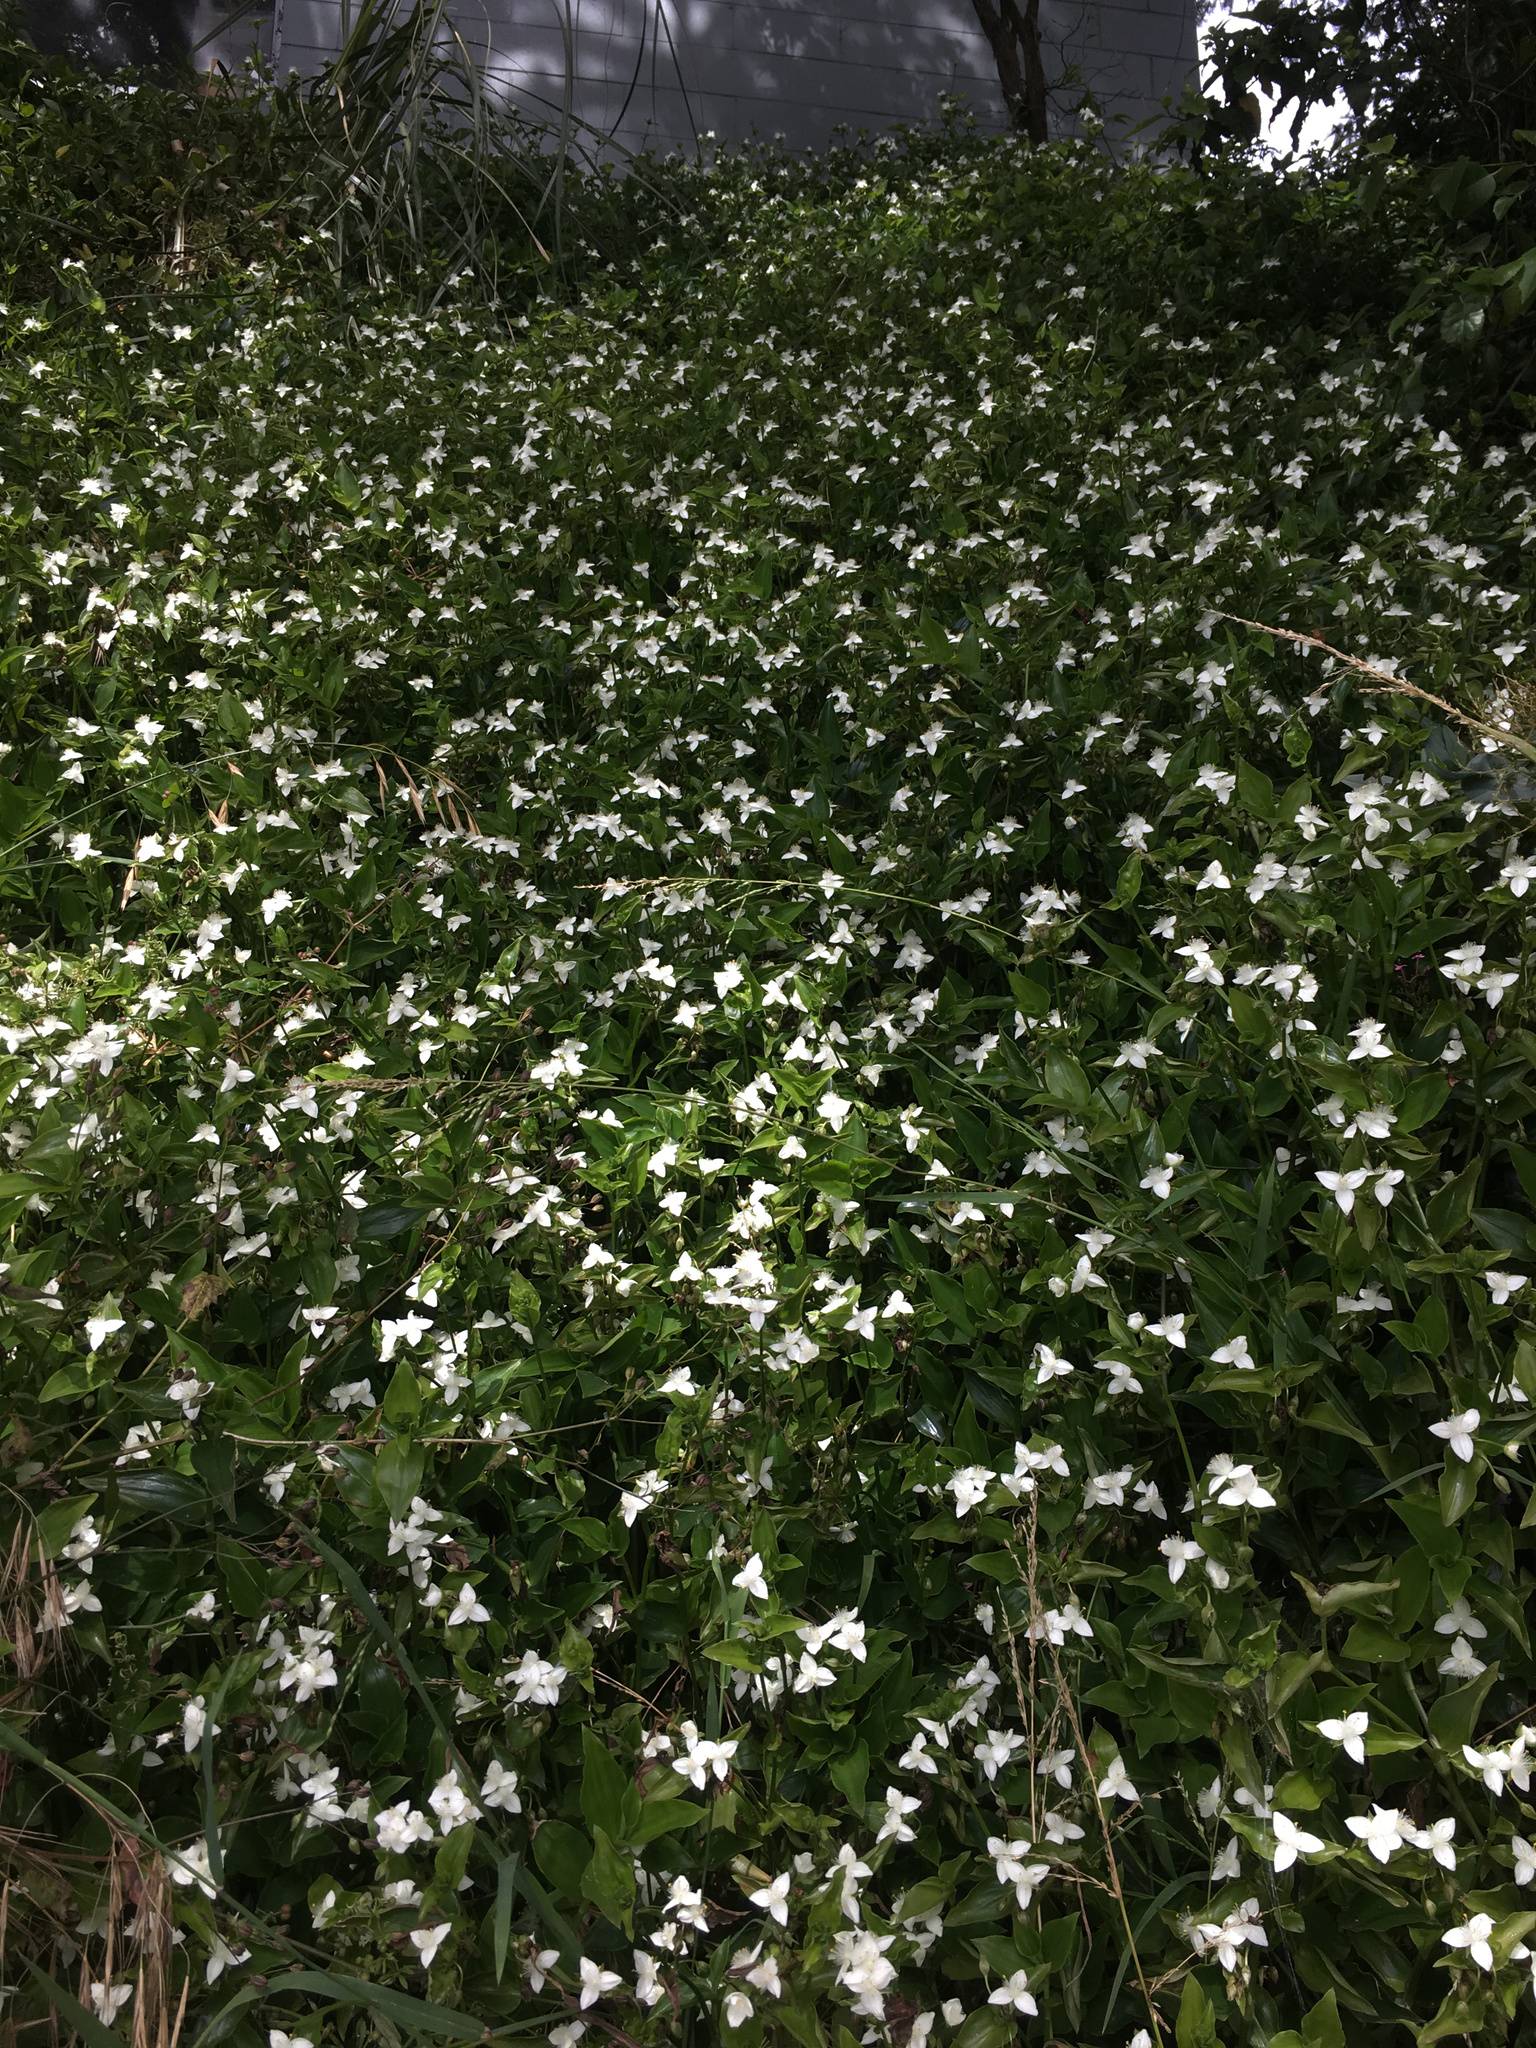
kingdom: Plantae
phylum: Tracheophyta
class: Liliopsida
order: Commelinales
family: Commelinaceae
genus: Tradescantia
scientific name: Tradescantia fluminensis
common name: Wandering-jew
